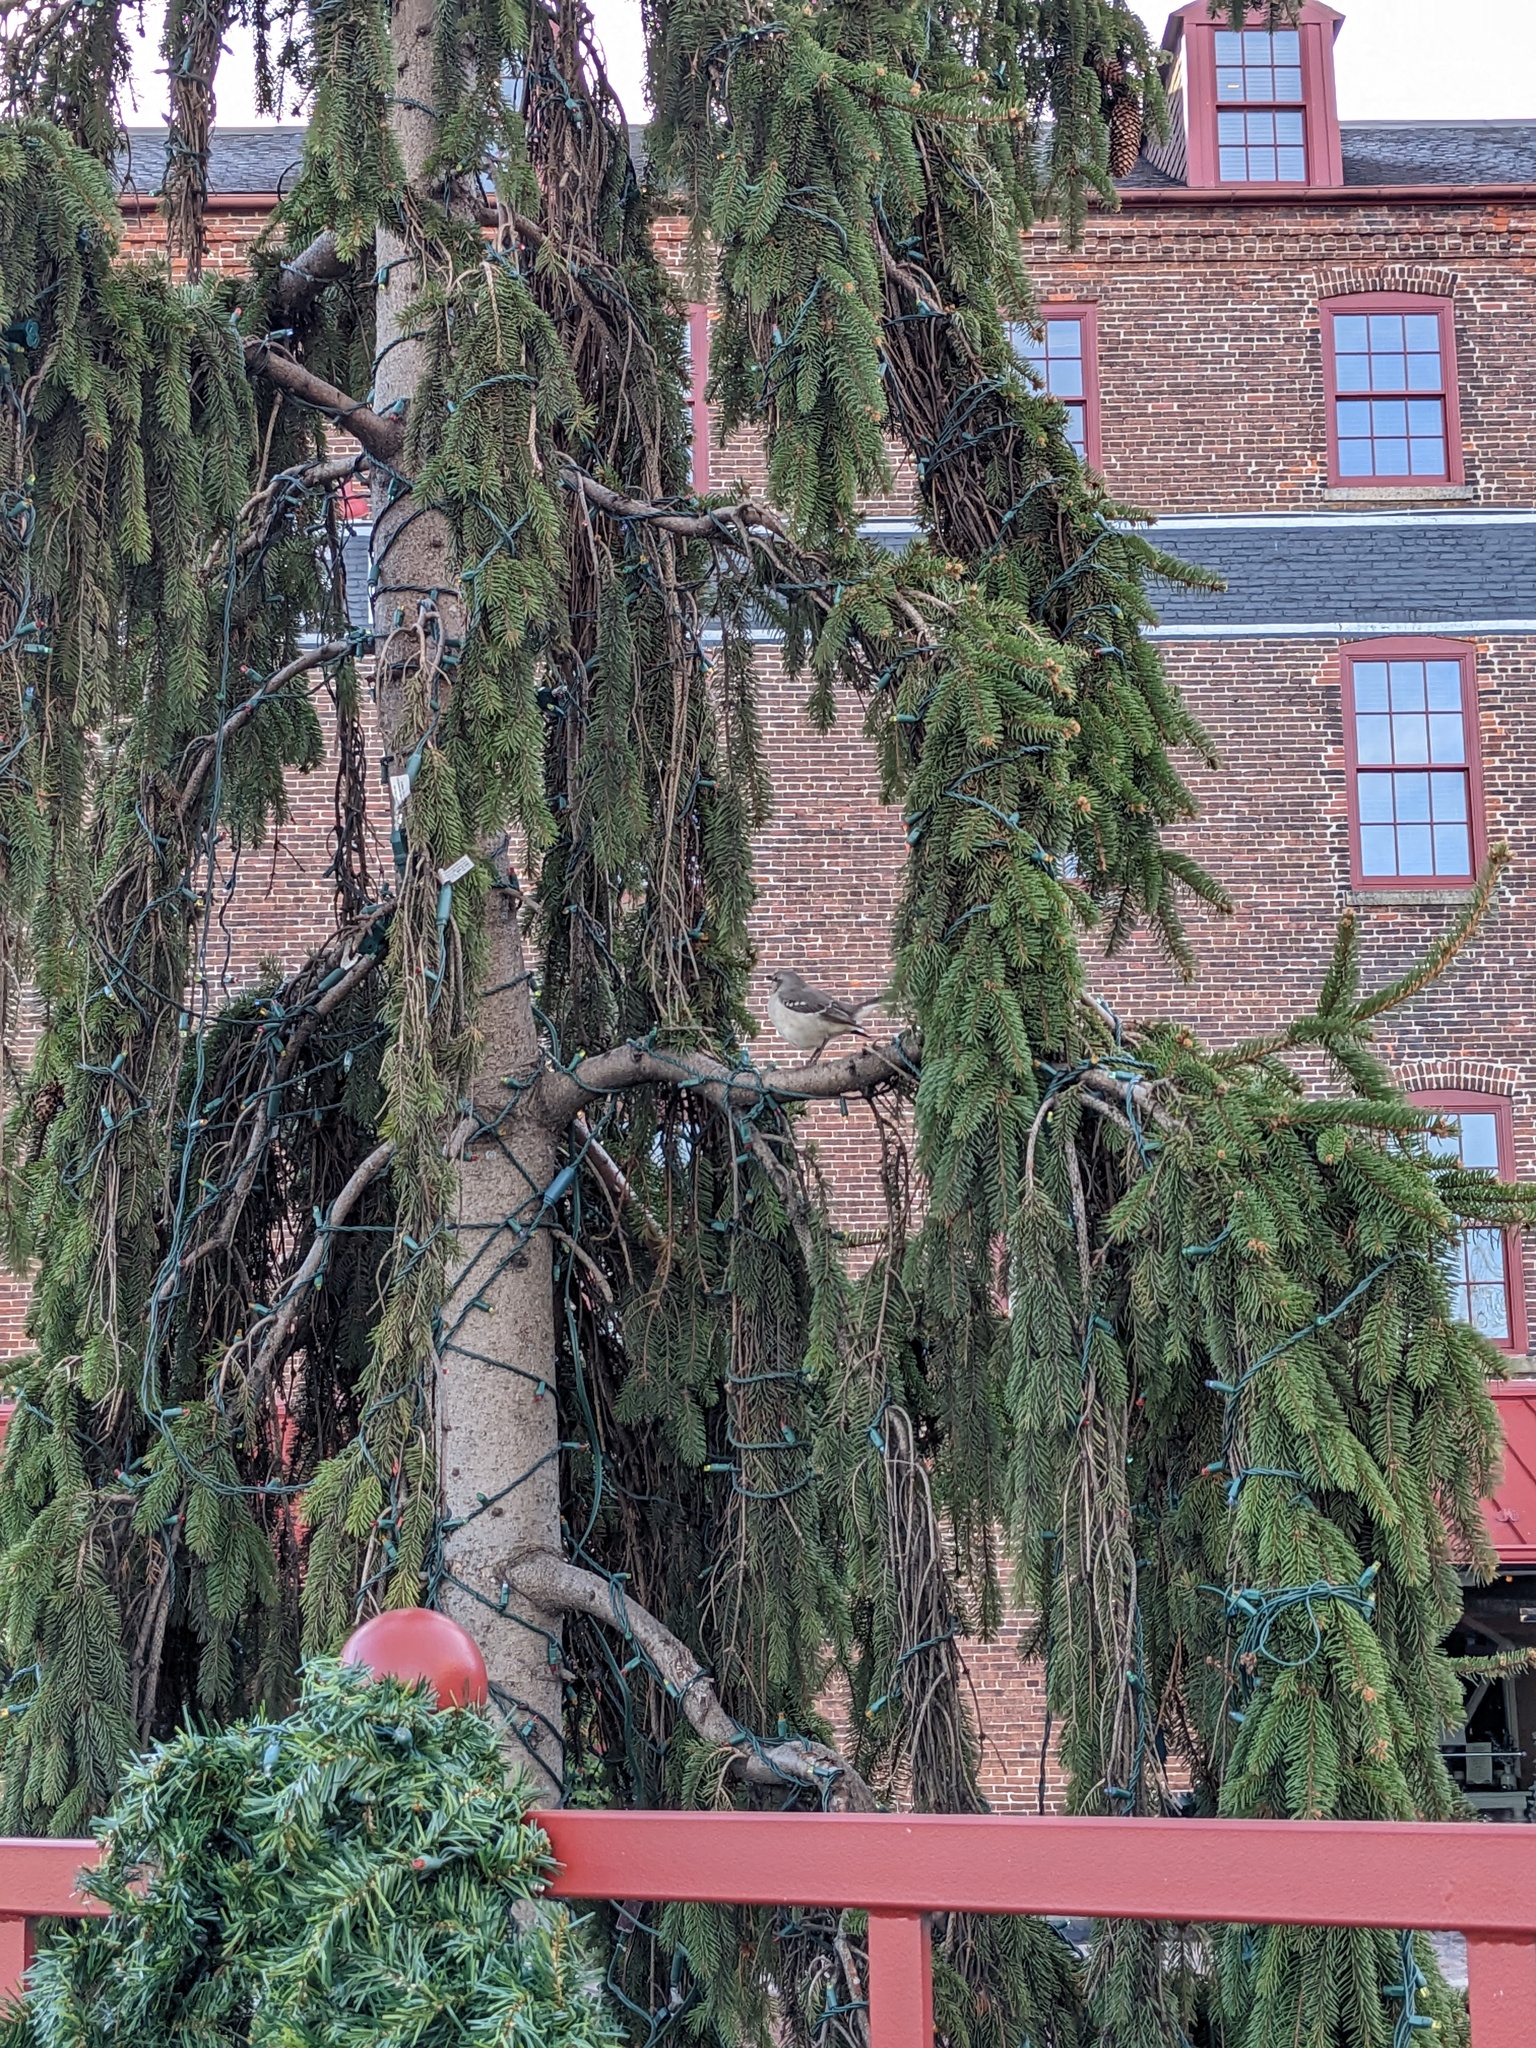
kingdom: Animalia
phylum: Chordata
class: Aves
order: Passeriformes
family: Mimidae
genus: Mimus
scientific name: Mimus polyglottos
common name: Northern mockingbird
